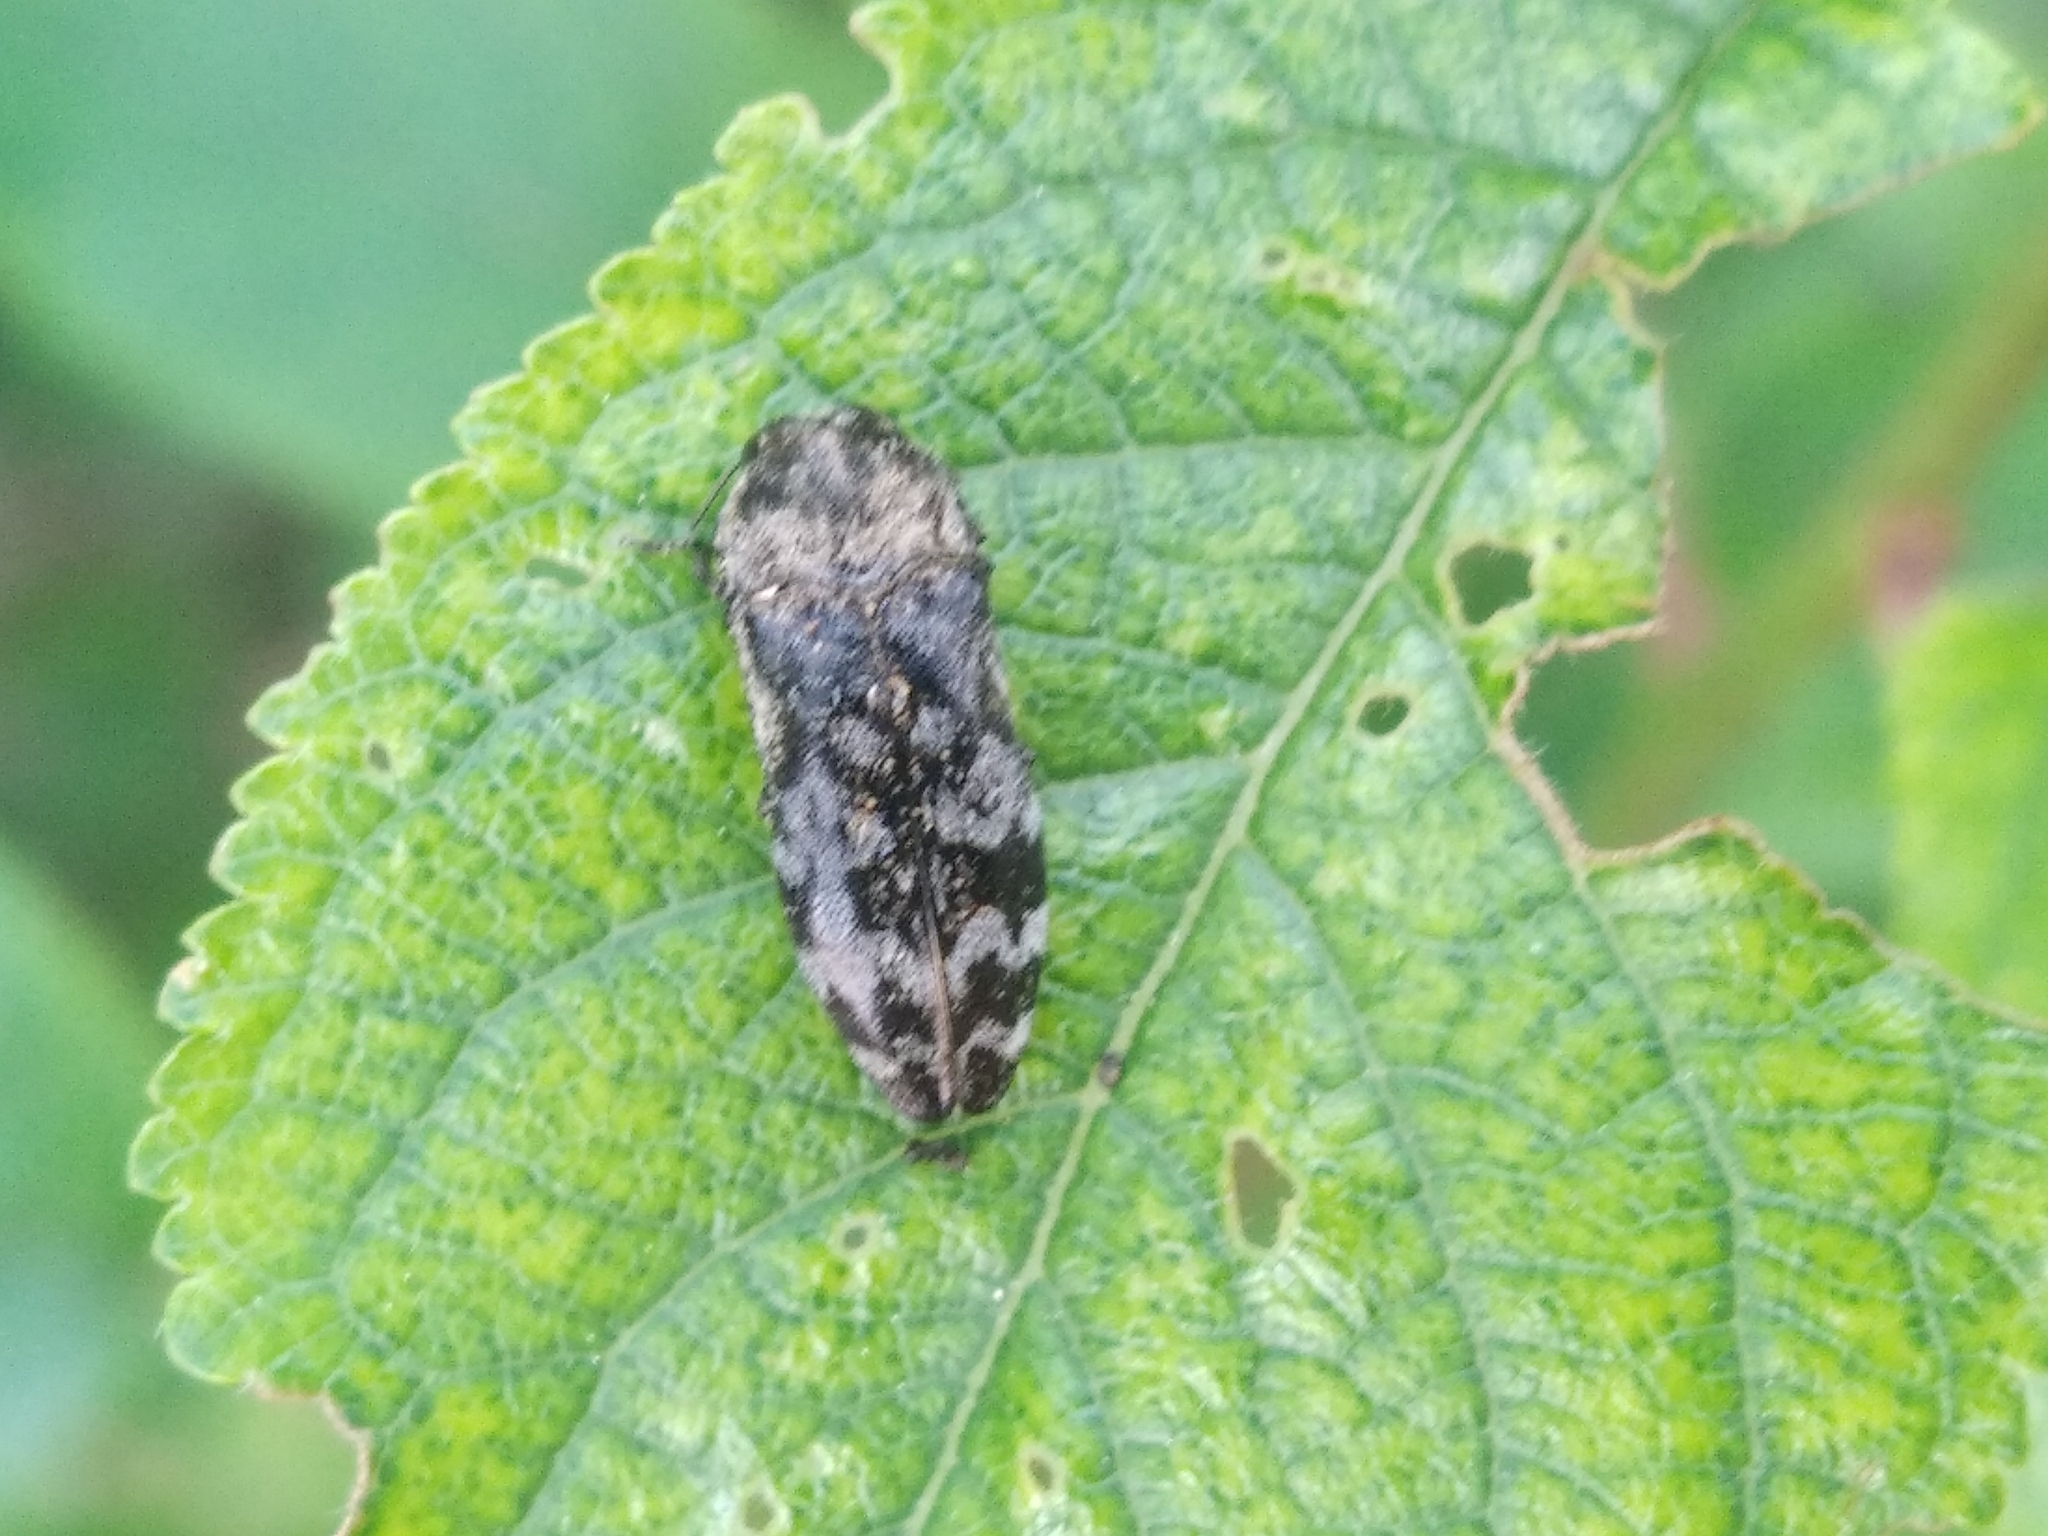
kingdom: Animalia
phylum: Arthropoda
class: Insecta
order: Coleoptera
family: Buprestidae
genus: Coraebus
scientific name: Coraebus rubi
